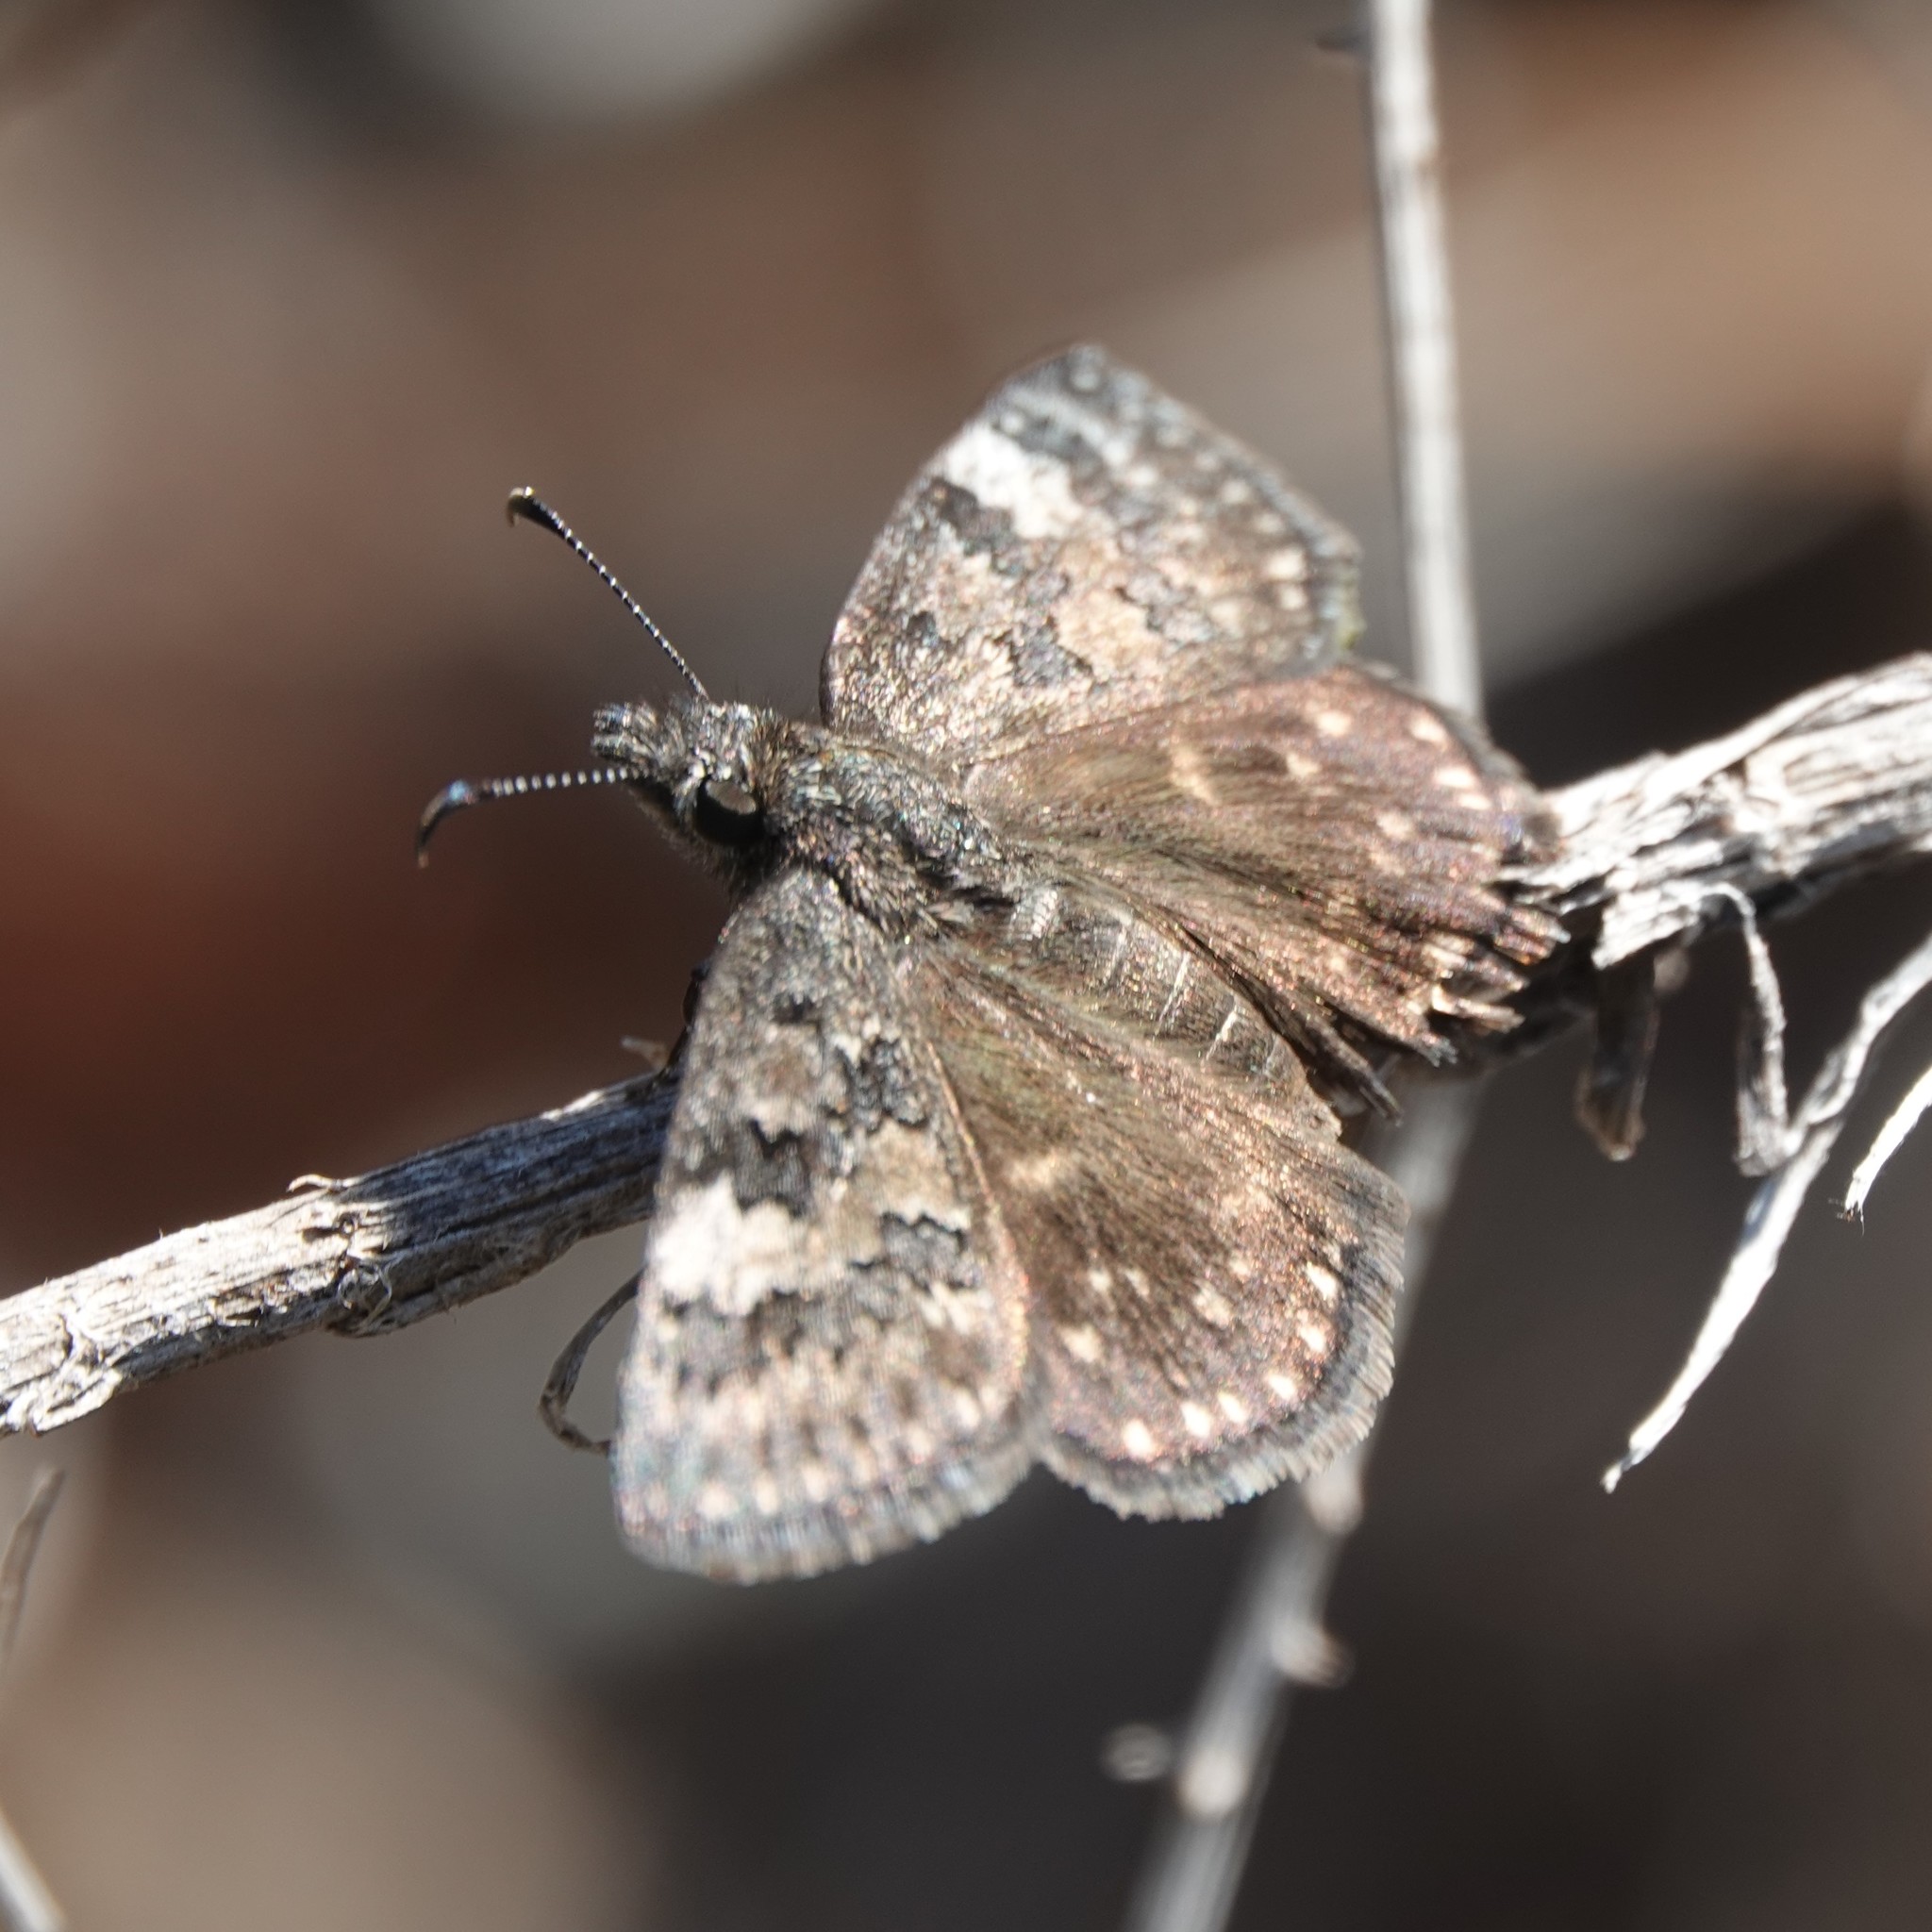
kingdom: Animalia
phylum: Arthropoda
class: Insecta
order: Lepidoptera
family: Hesperiidae
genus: Erynnis
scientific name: Erynnis brizo
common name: Sleepy duskywing
